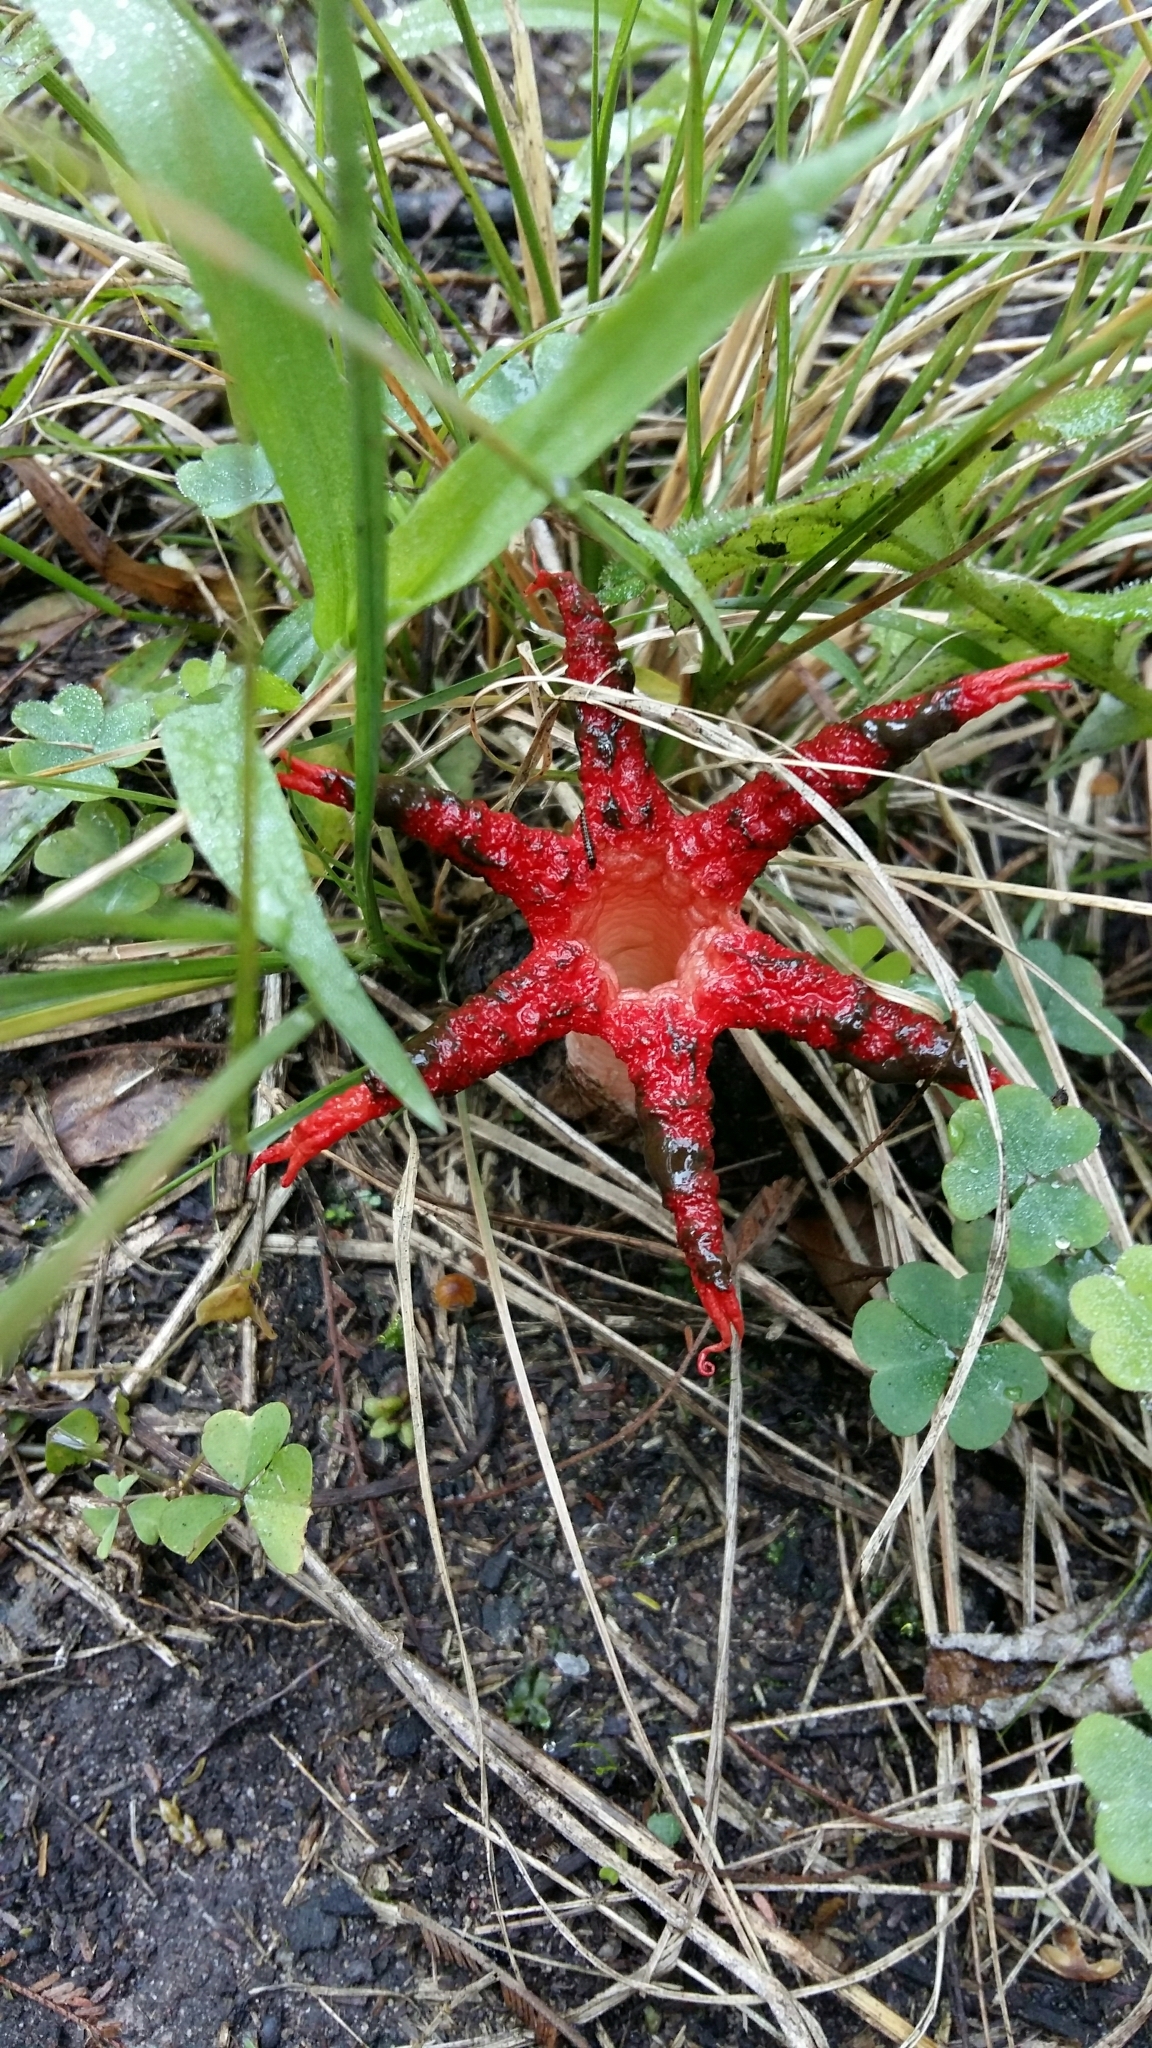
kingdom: Fungi
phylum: Basidiomycota
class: Agaricomycetes
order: Phallales
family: Phallaceae
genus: Clathrus
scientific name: Clathrus archeri
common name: Devil's fingers
